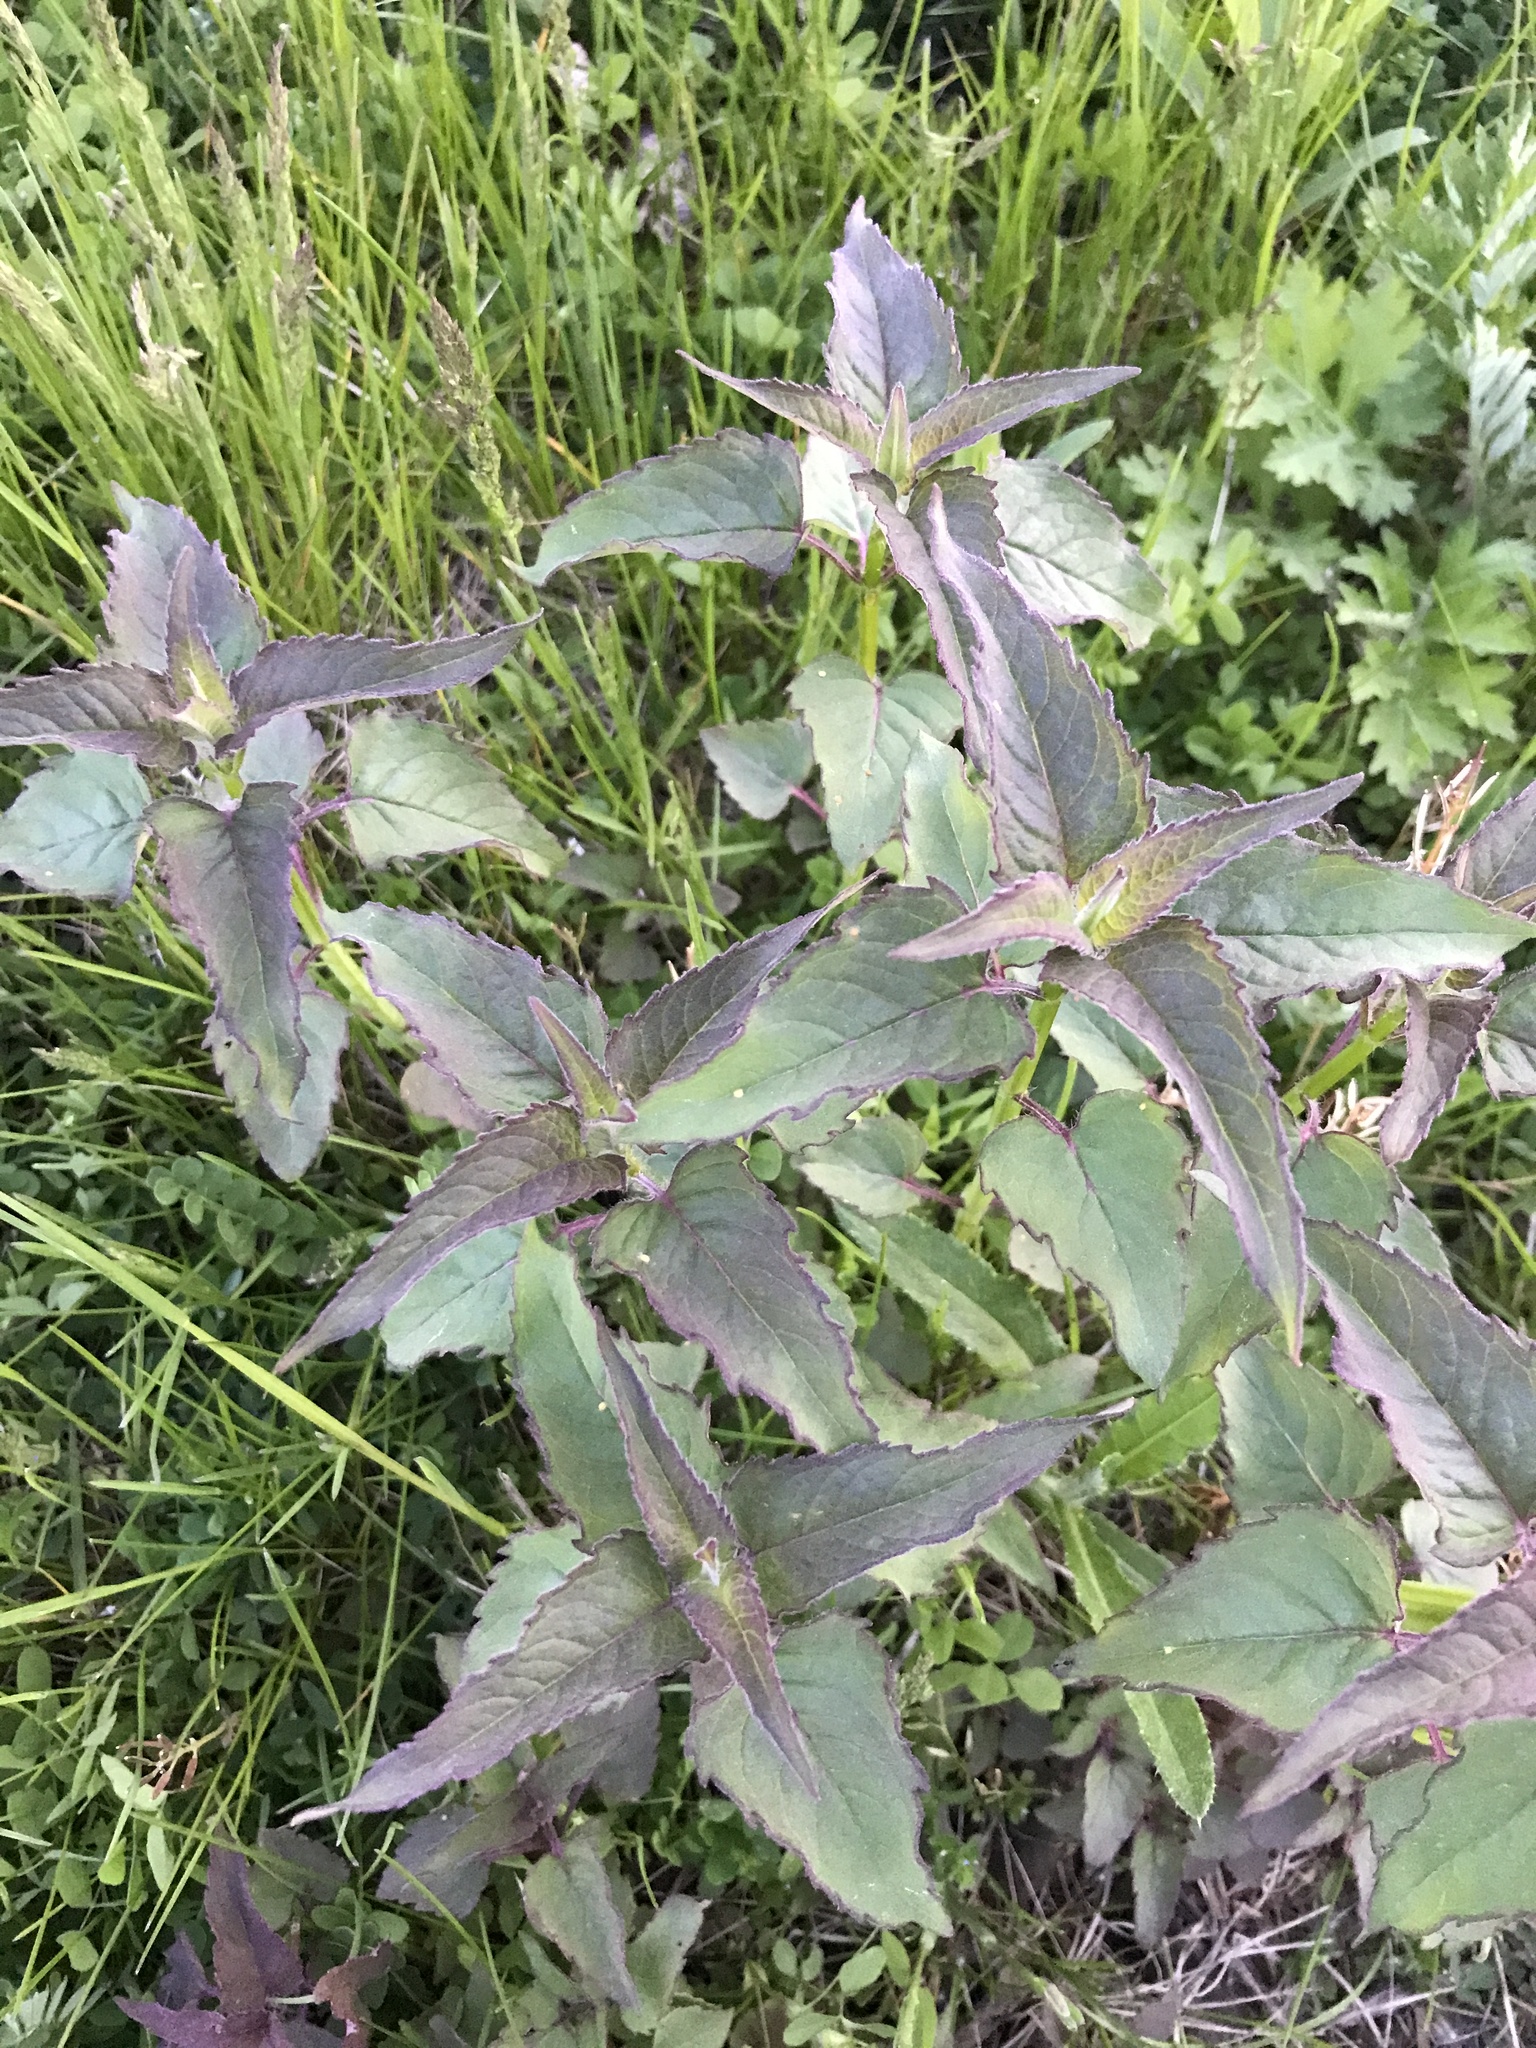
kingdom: Plantae
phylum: Tracheophyta
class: Magnoliopsida
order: Lamiales
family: Lamiaceae
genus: Monarda
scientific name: Monarda fistulosa
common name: Purple beebalm
